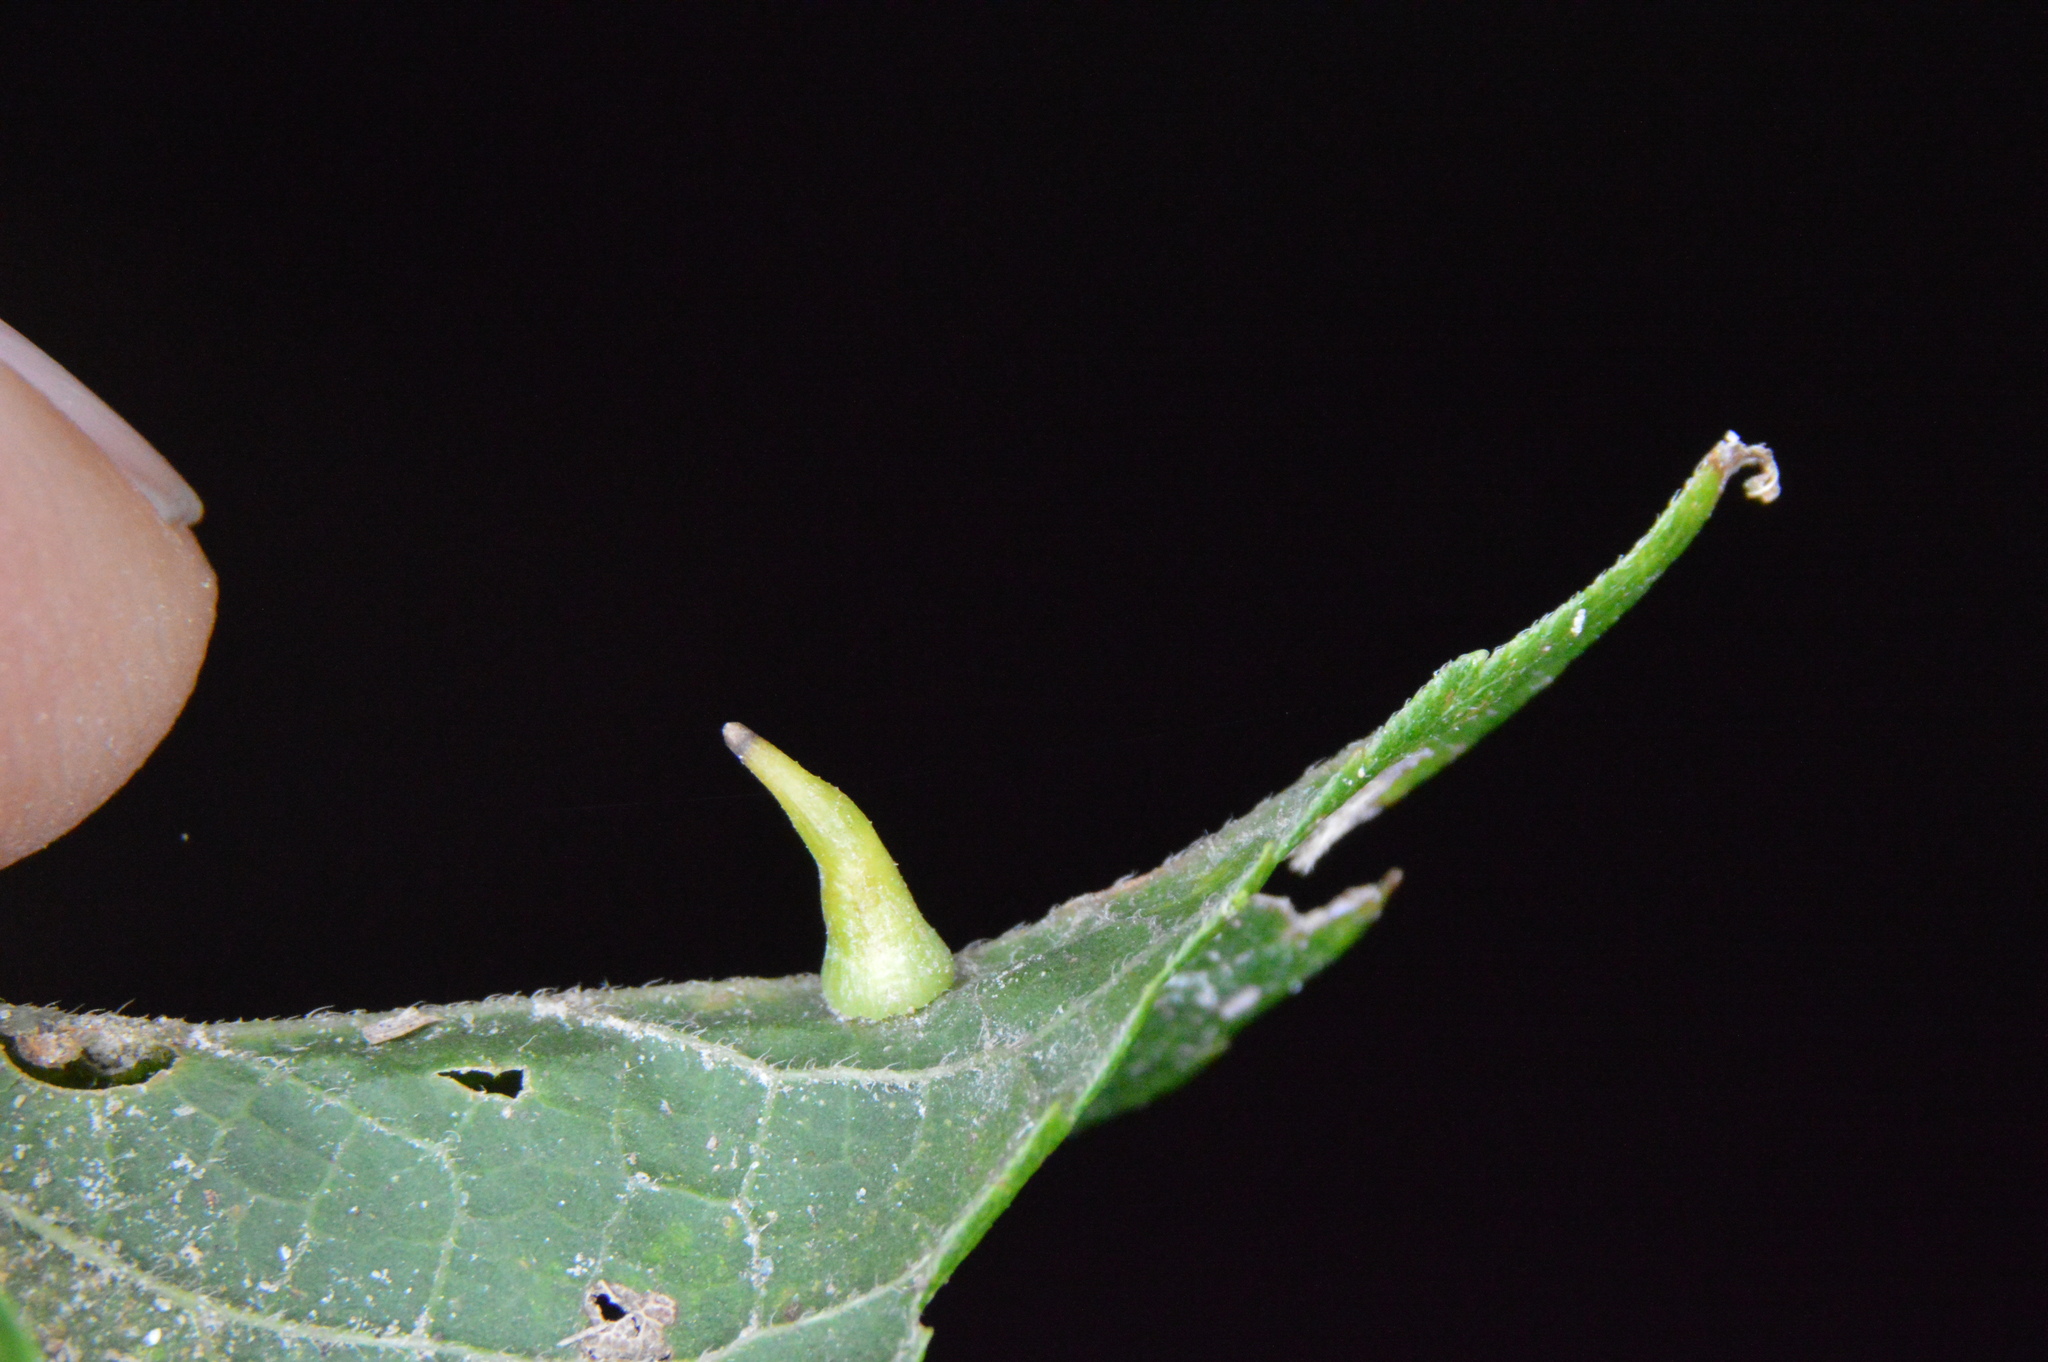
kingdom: Animalia
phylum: Arthropoda
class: Insecta
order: Diptera
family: Cecidomyiidae
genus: Celticecis
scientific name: Celticecis subulata
